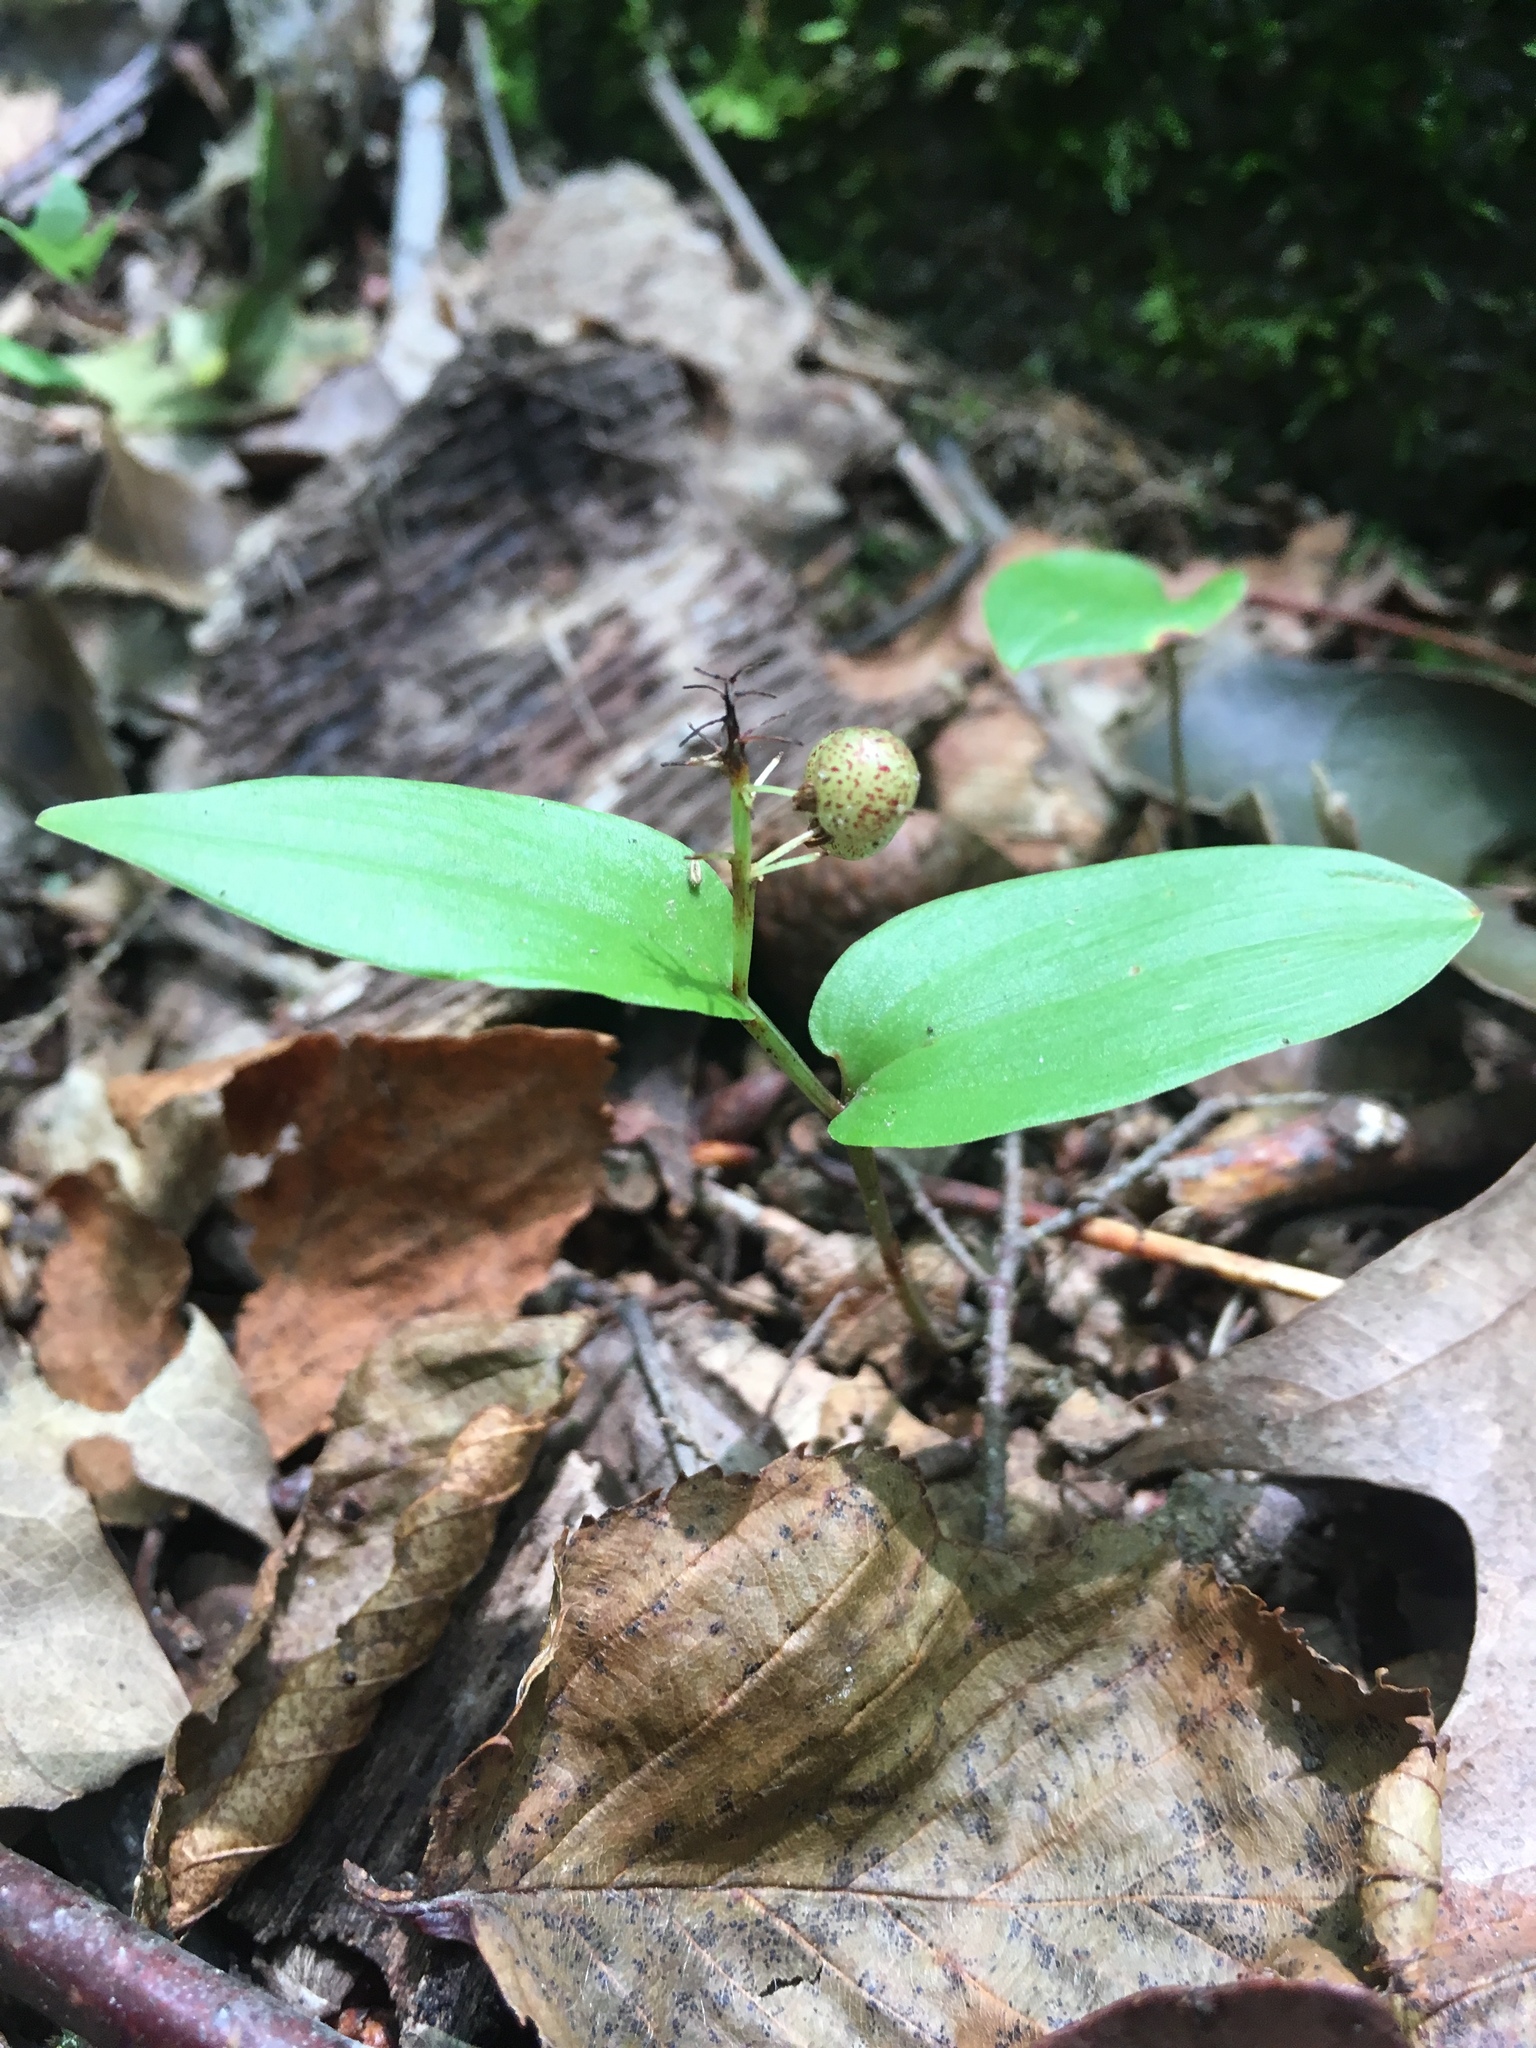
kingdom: Plantae
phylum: Tracheophyta
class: Liliopsida
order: Asparagales
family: Asparagaceae
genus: Maianthemum
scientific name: Maianthemum canadense
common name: False lily-of-the-valley
